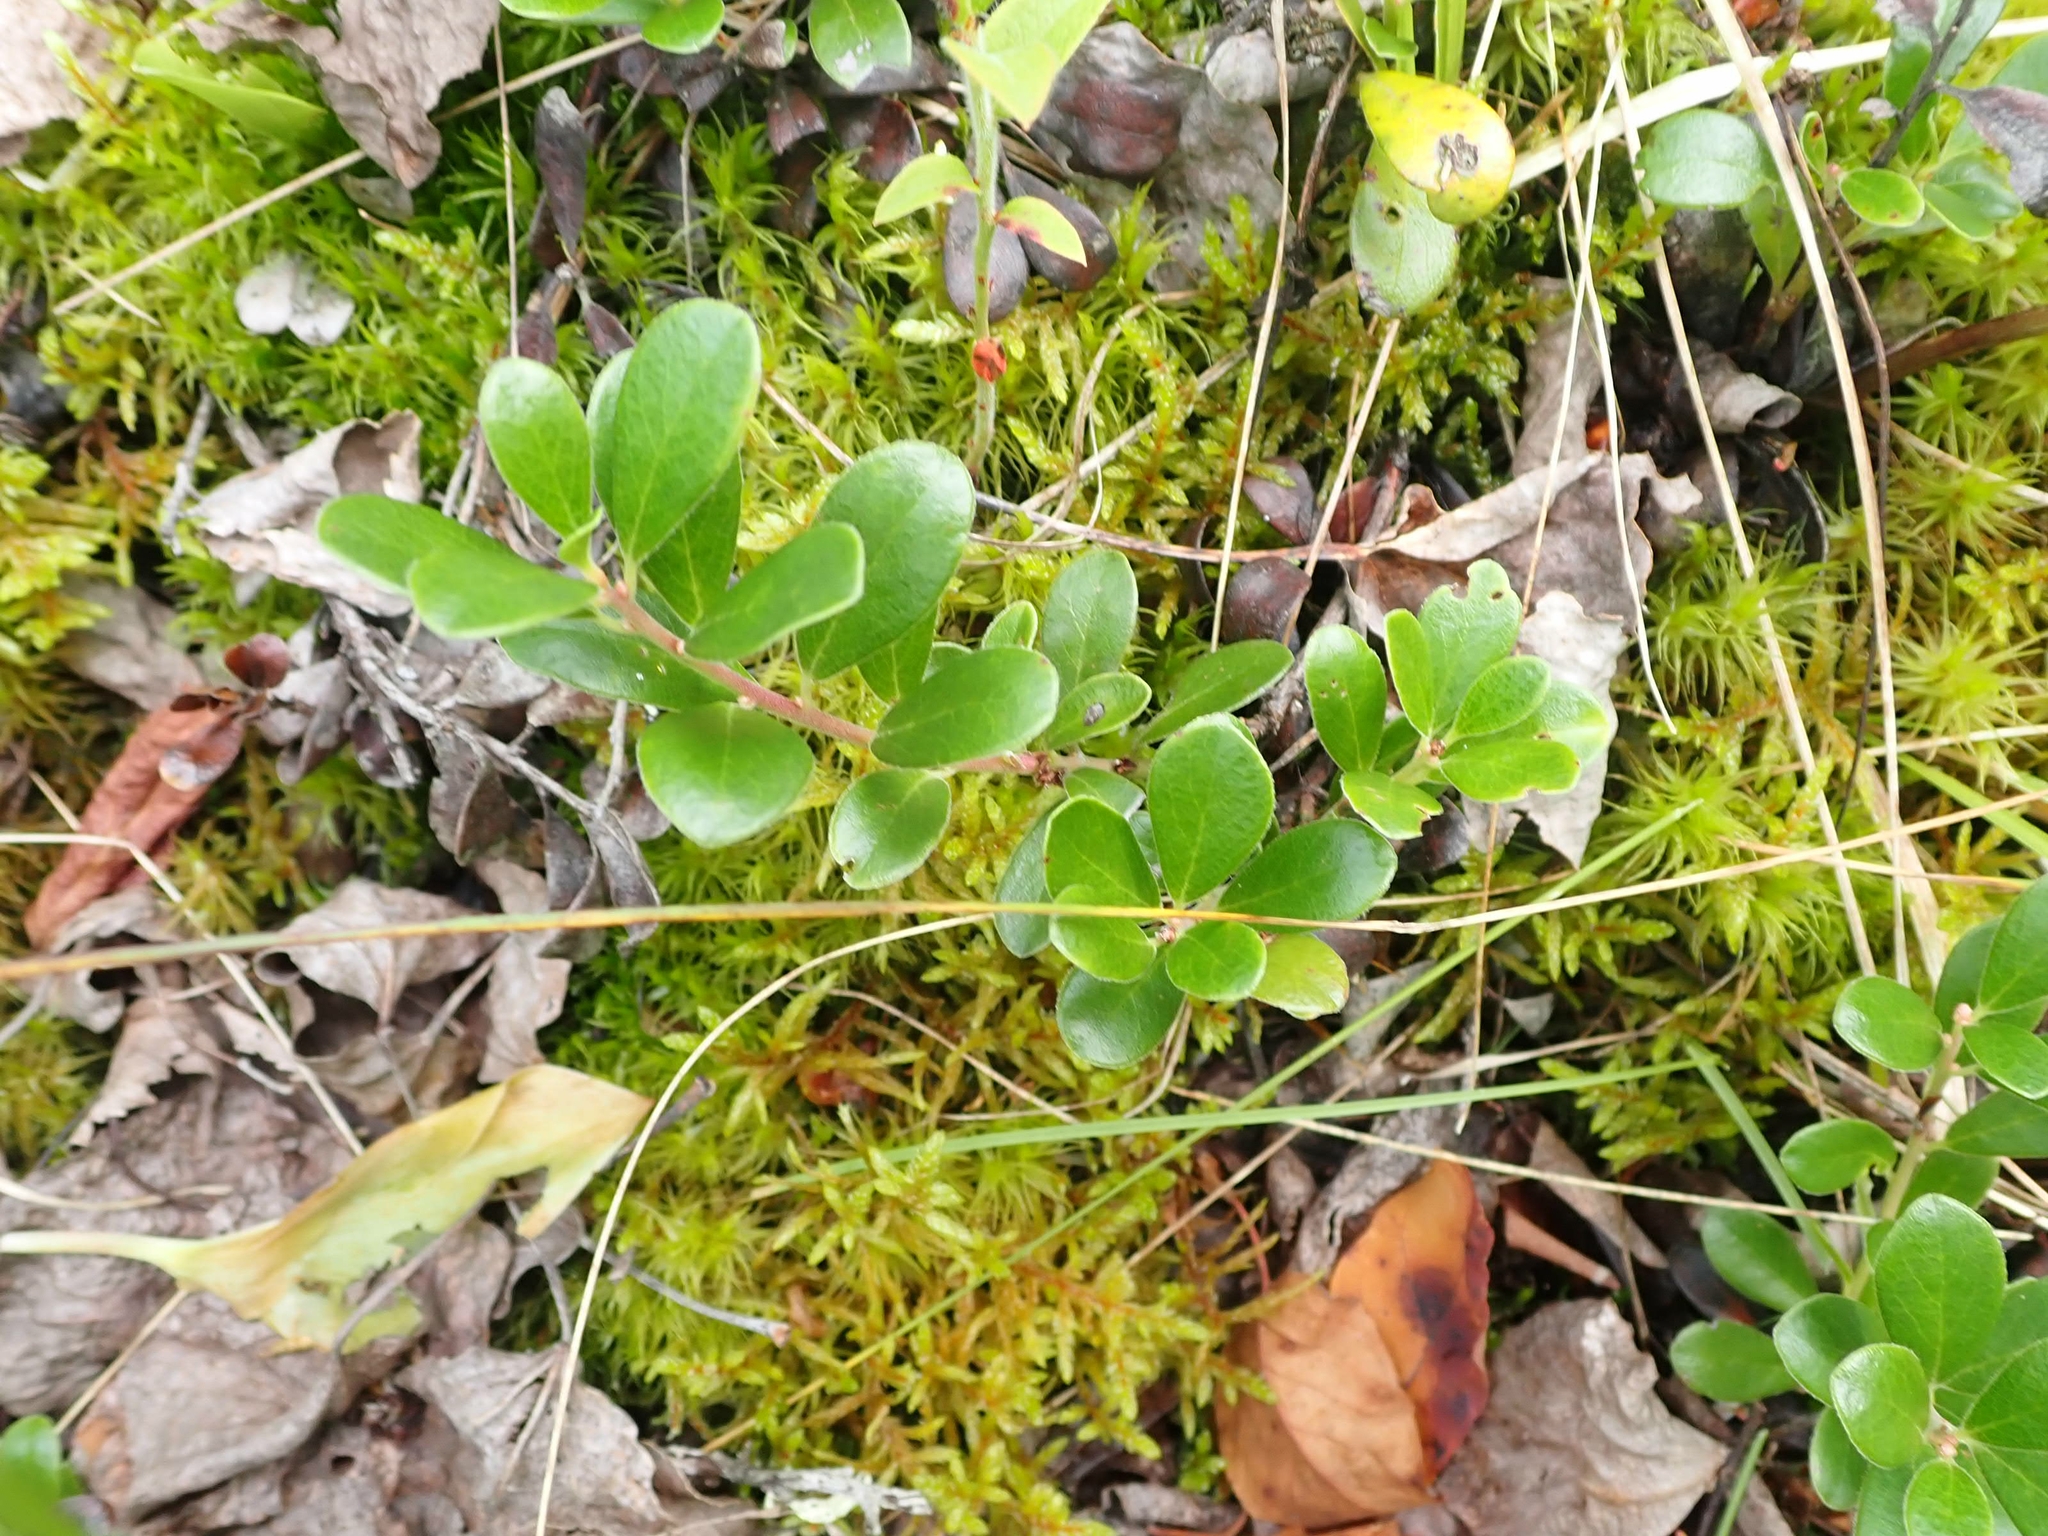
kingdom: Plantae
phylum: Tracheophyta
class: Magnoliopsida
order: Ericales
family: Ericaceae
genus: Arctostaphylos
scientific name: Arctostaphylos uva-ursi
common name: Bearberry
